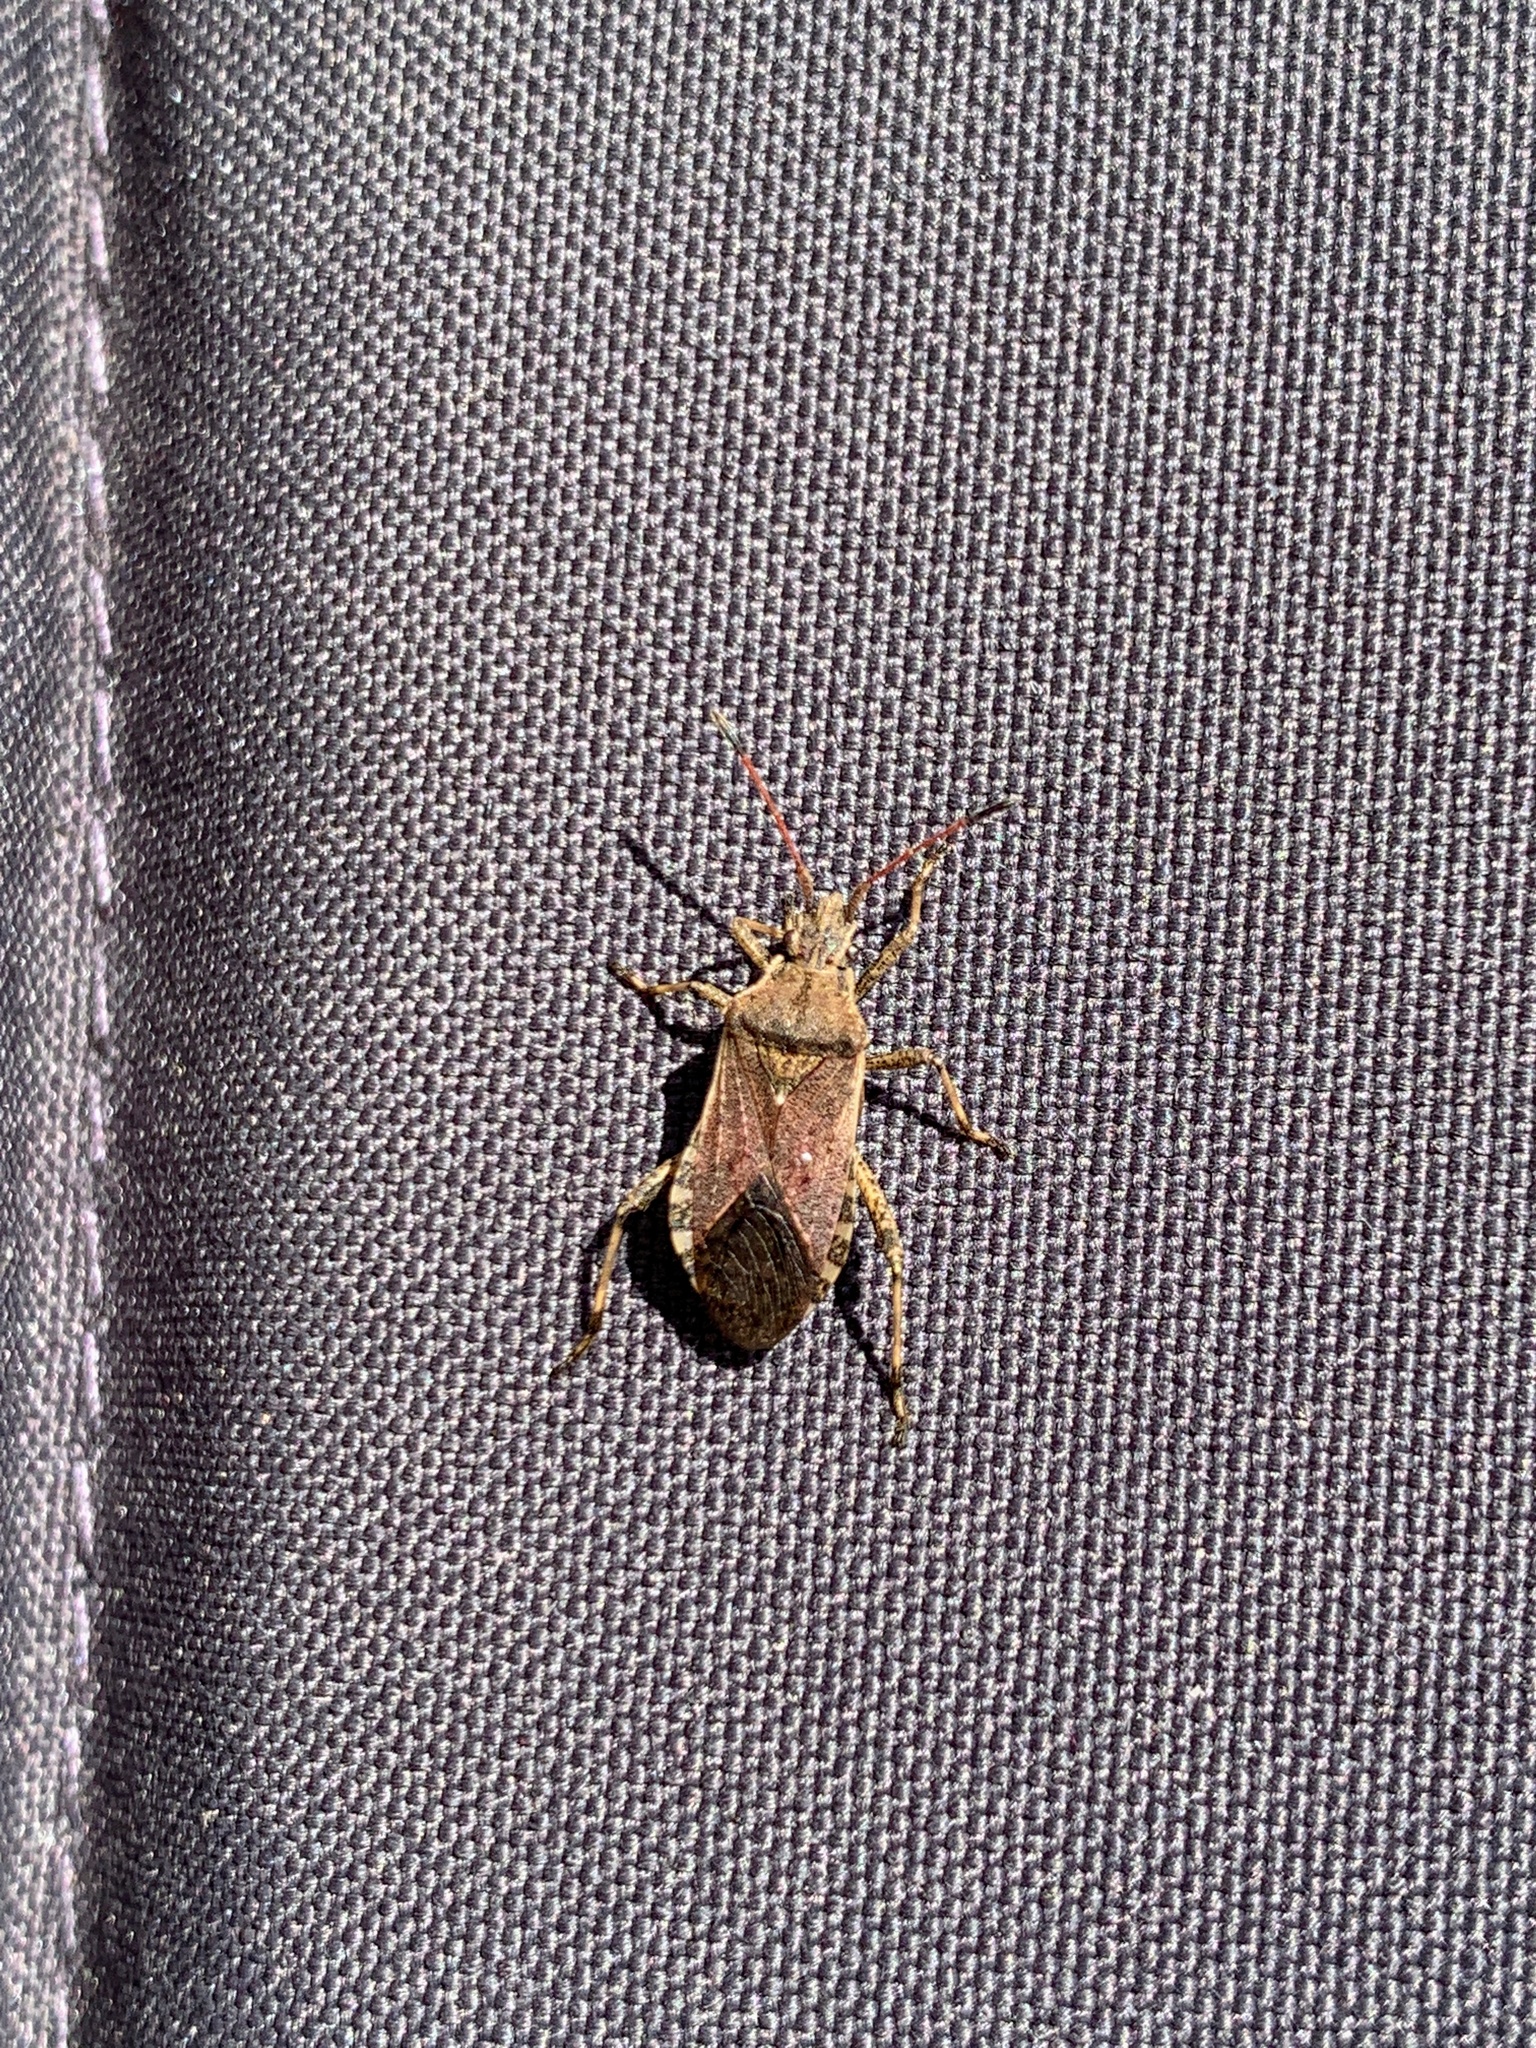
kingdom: Animalia
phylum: Arthropoda
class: Insecta
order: Hemiptera
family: Coreidae
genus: Ceraleptus
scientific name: Ceraleptus gracilicornis
